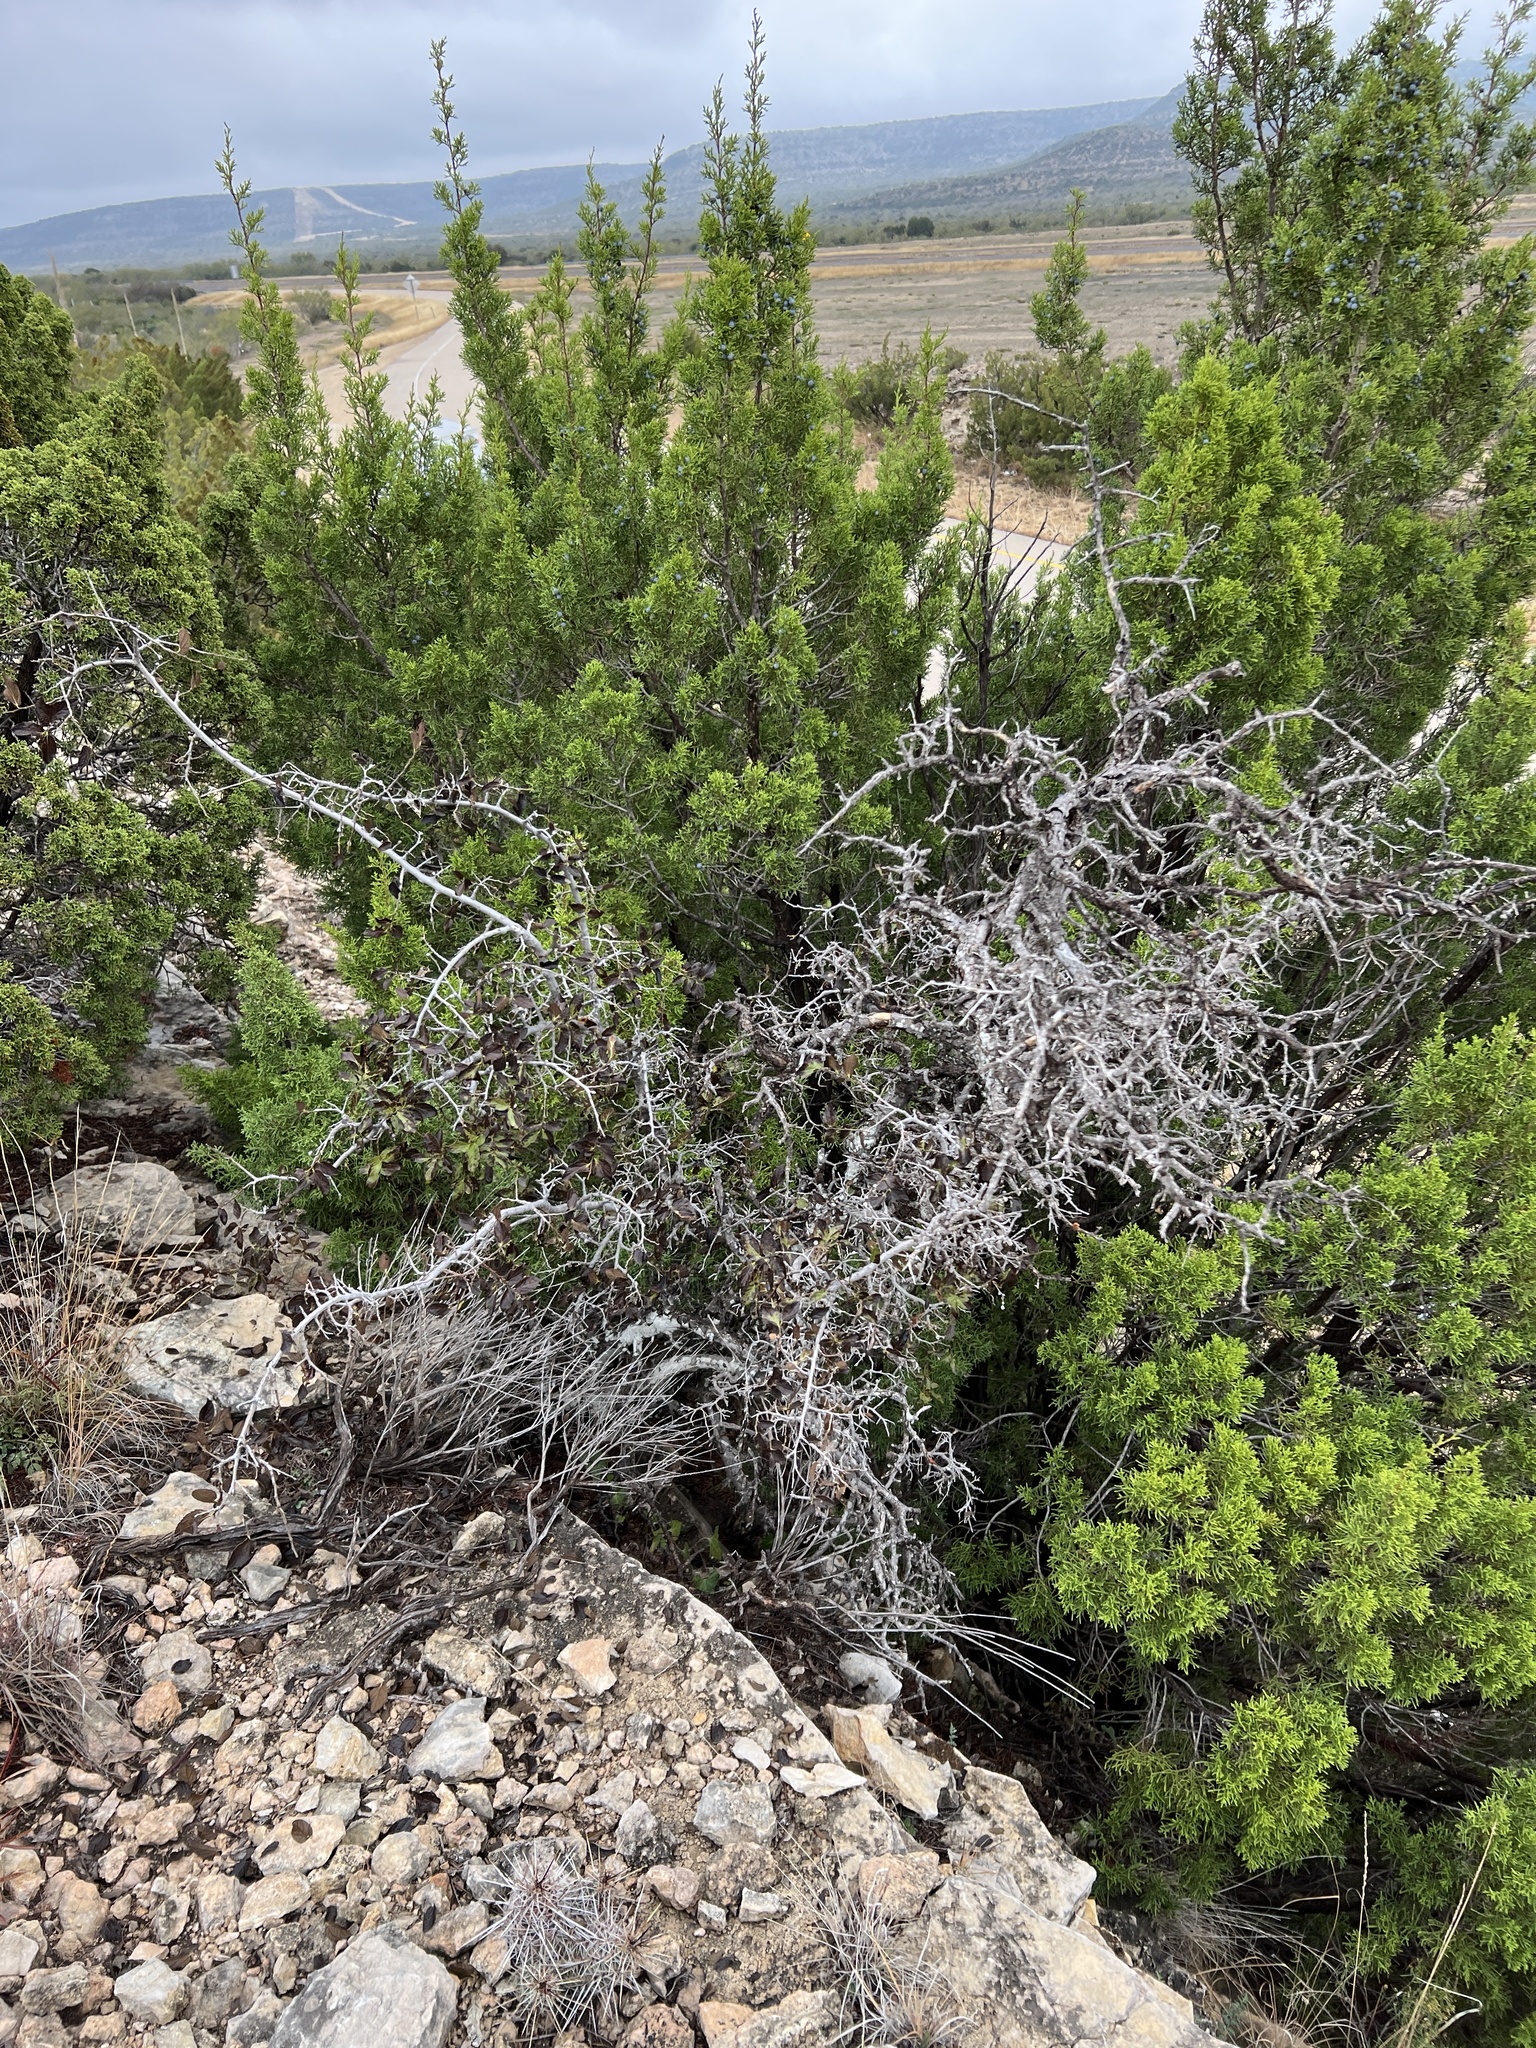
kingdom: Plantae
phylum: Tracheophyta
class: Magnoliopsida
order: Rosales
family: Cannabaceae
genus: Celtis
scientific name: Celtis reticulata
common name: Netleaf hackberry
